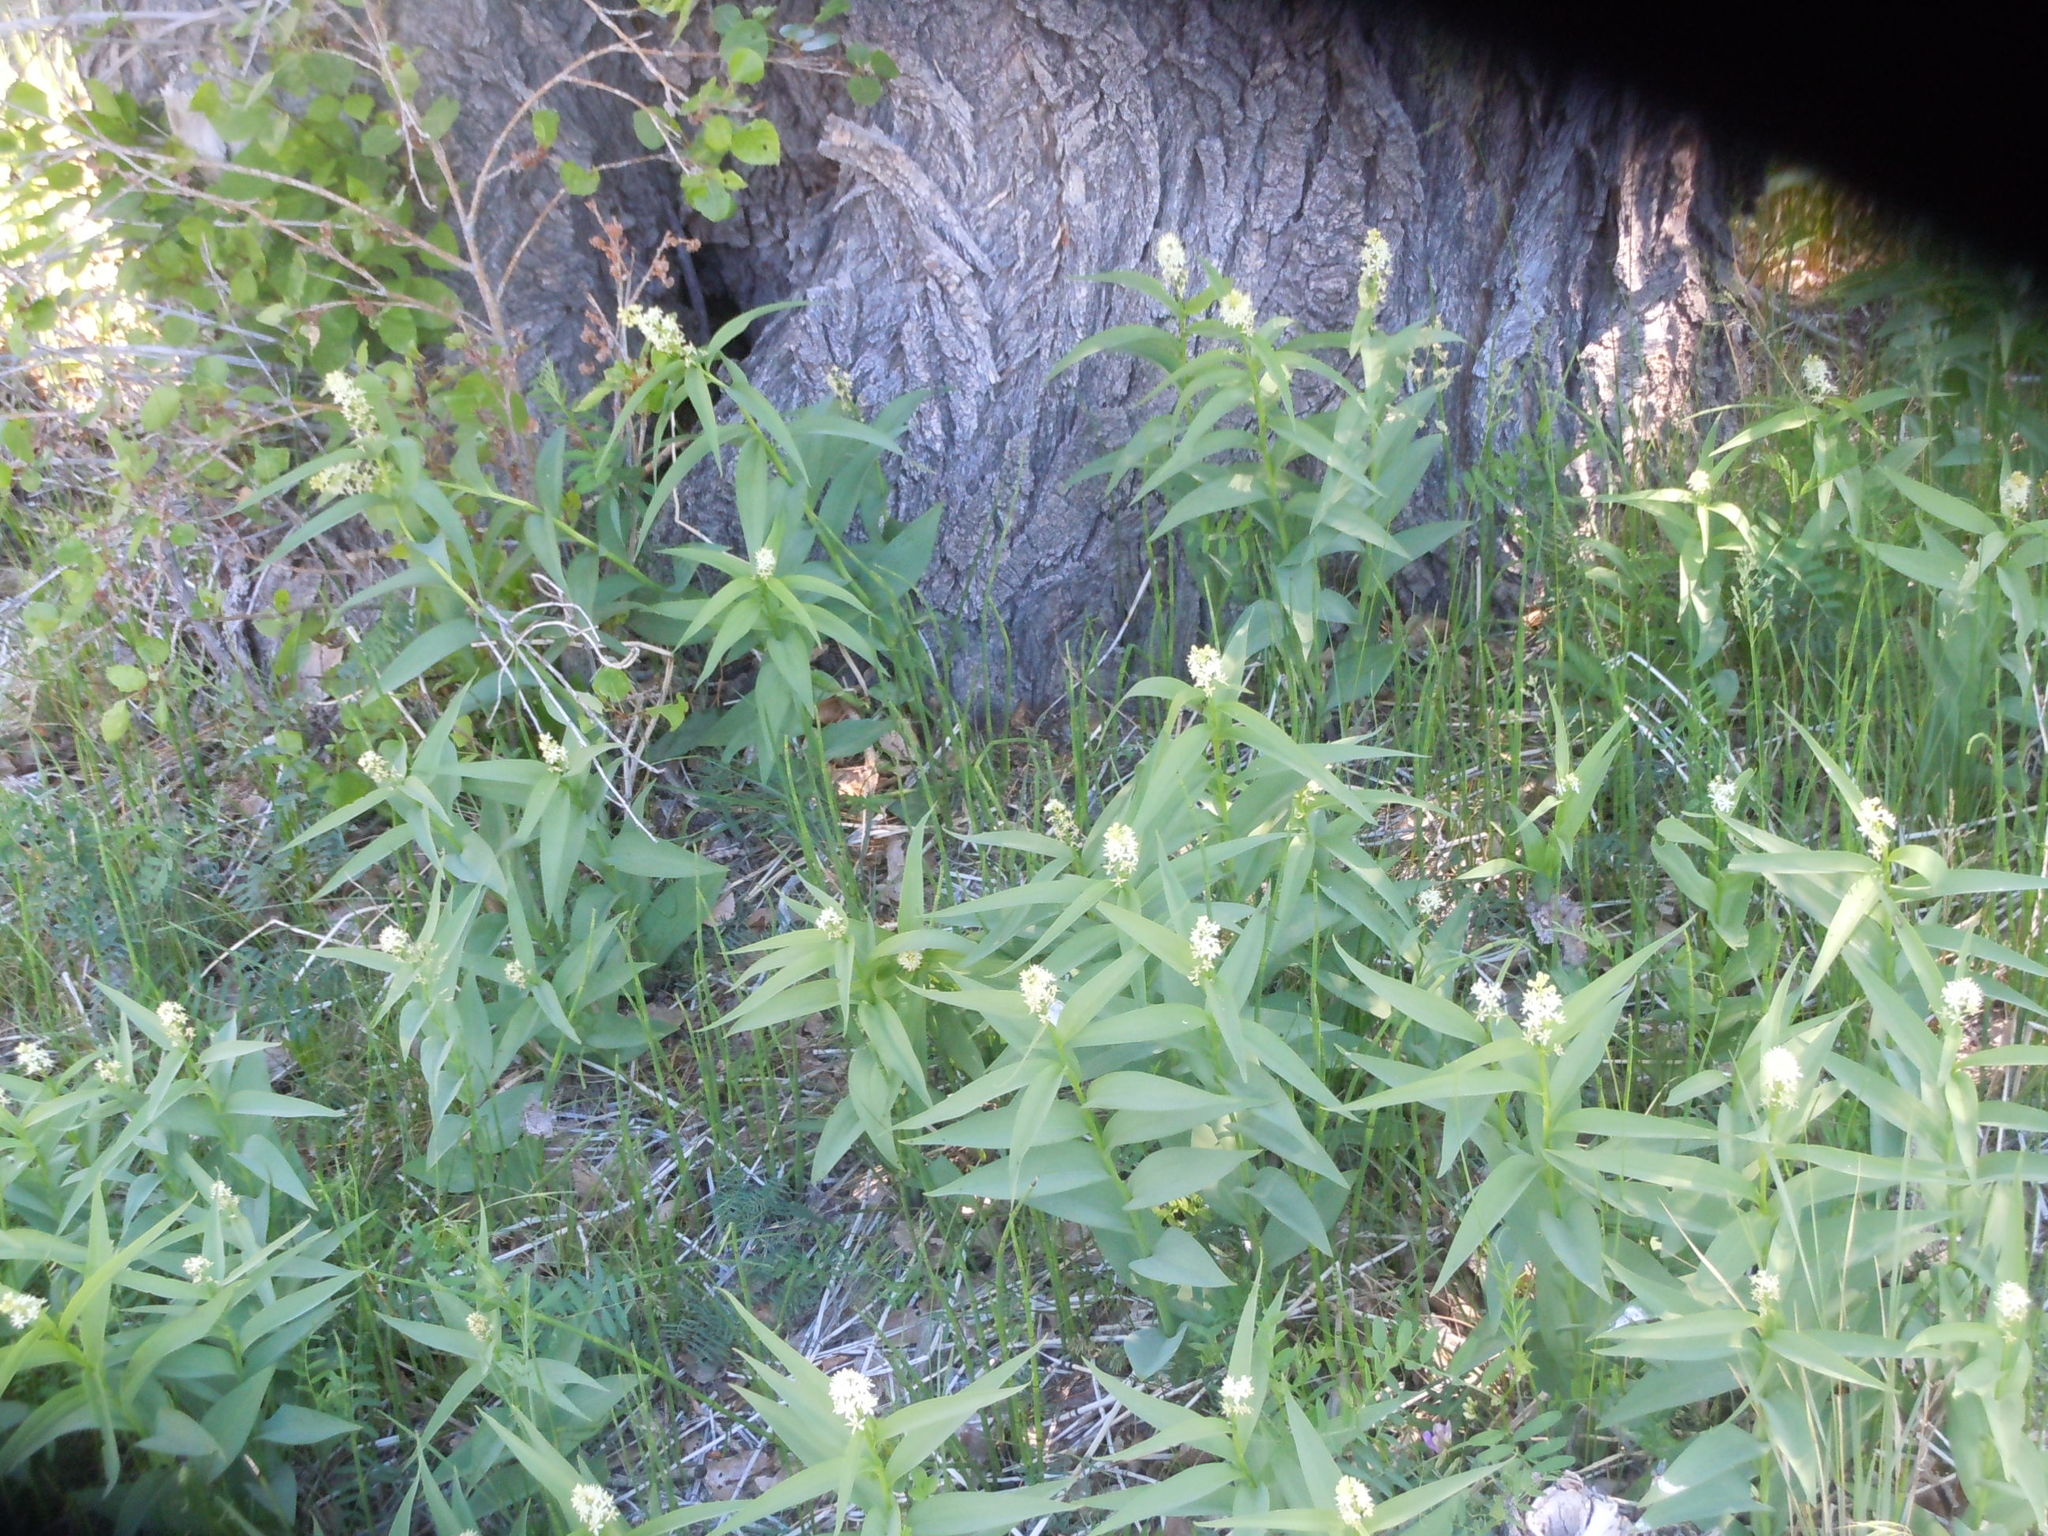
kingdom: Plantae
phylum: Tracheophyta
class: Liliopsida
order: Asparagales
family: Asparagaceae
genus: Maianthemum
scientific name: Maianthemum stellatum
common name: Little false solomon's seal
